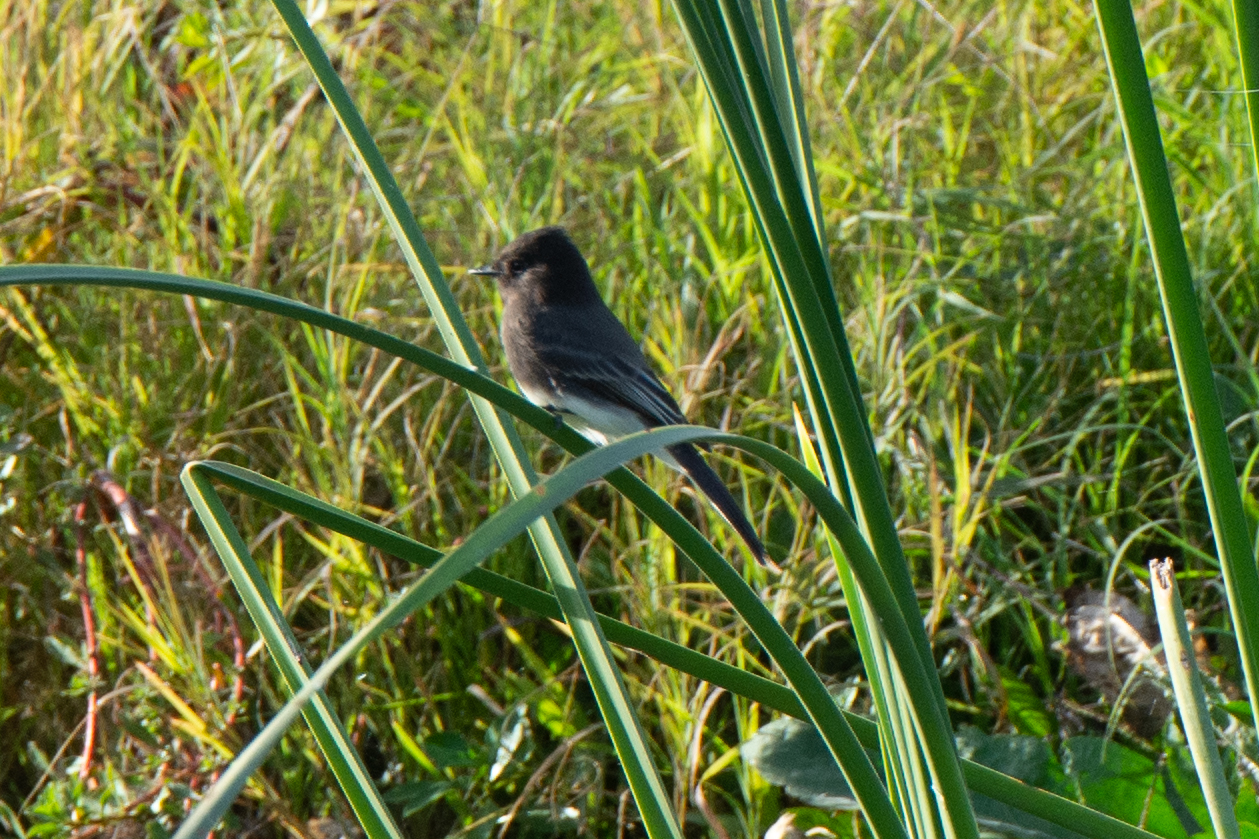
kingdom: Animalia
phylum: Chordata
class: Aves
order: Passeriformes
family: Tyrannidae
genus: Sayornis
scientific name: Sayornis nigricans
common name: Black phoebe
